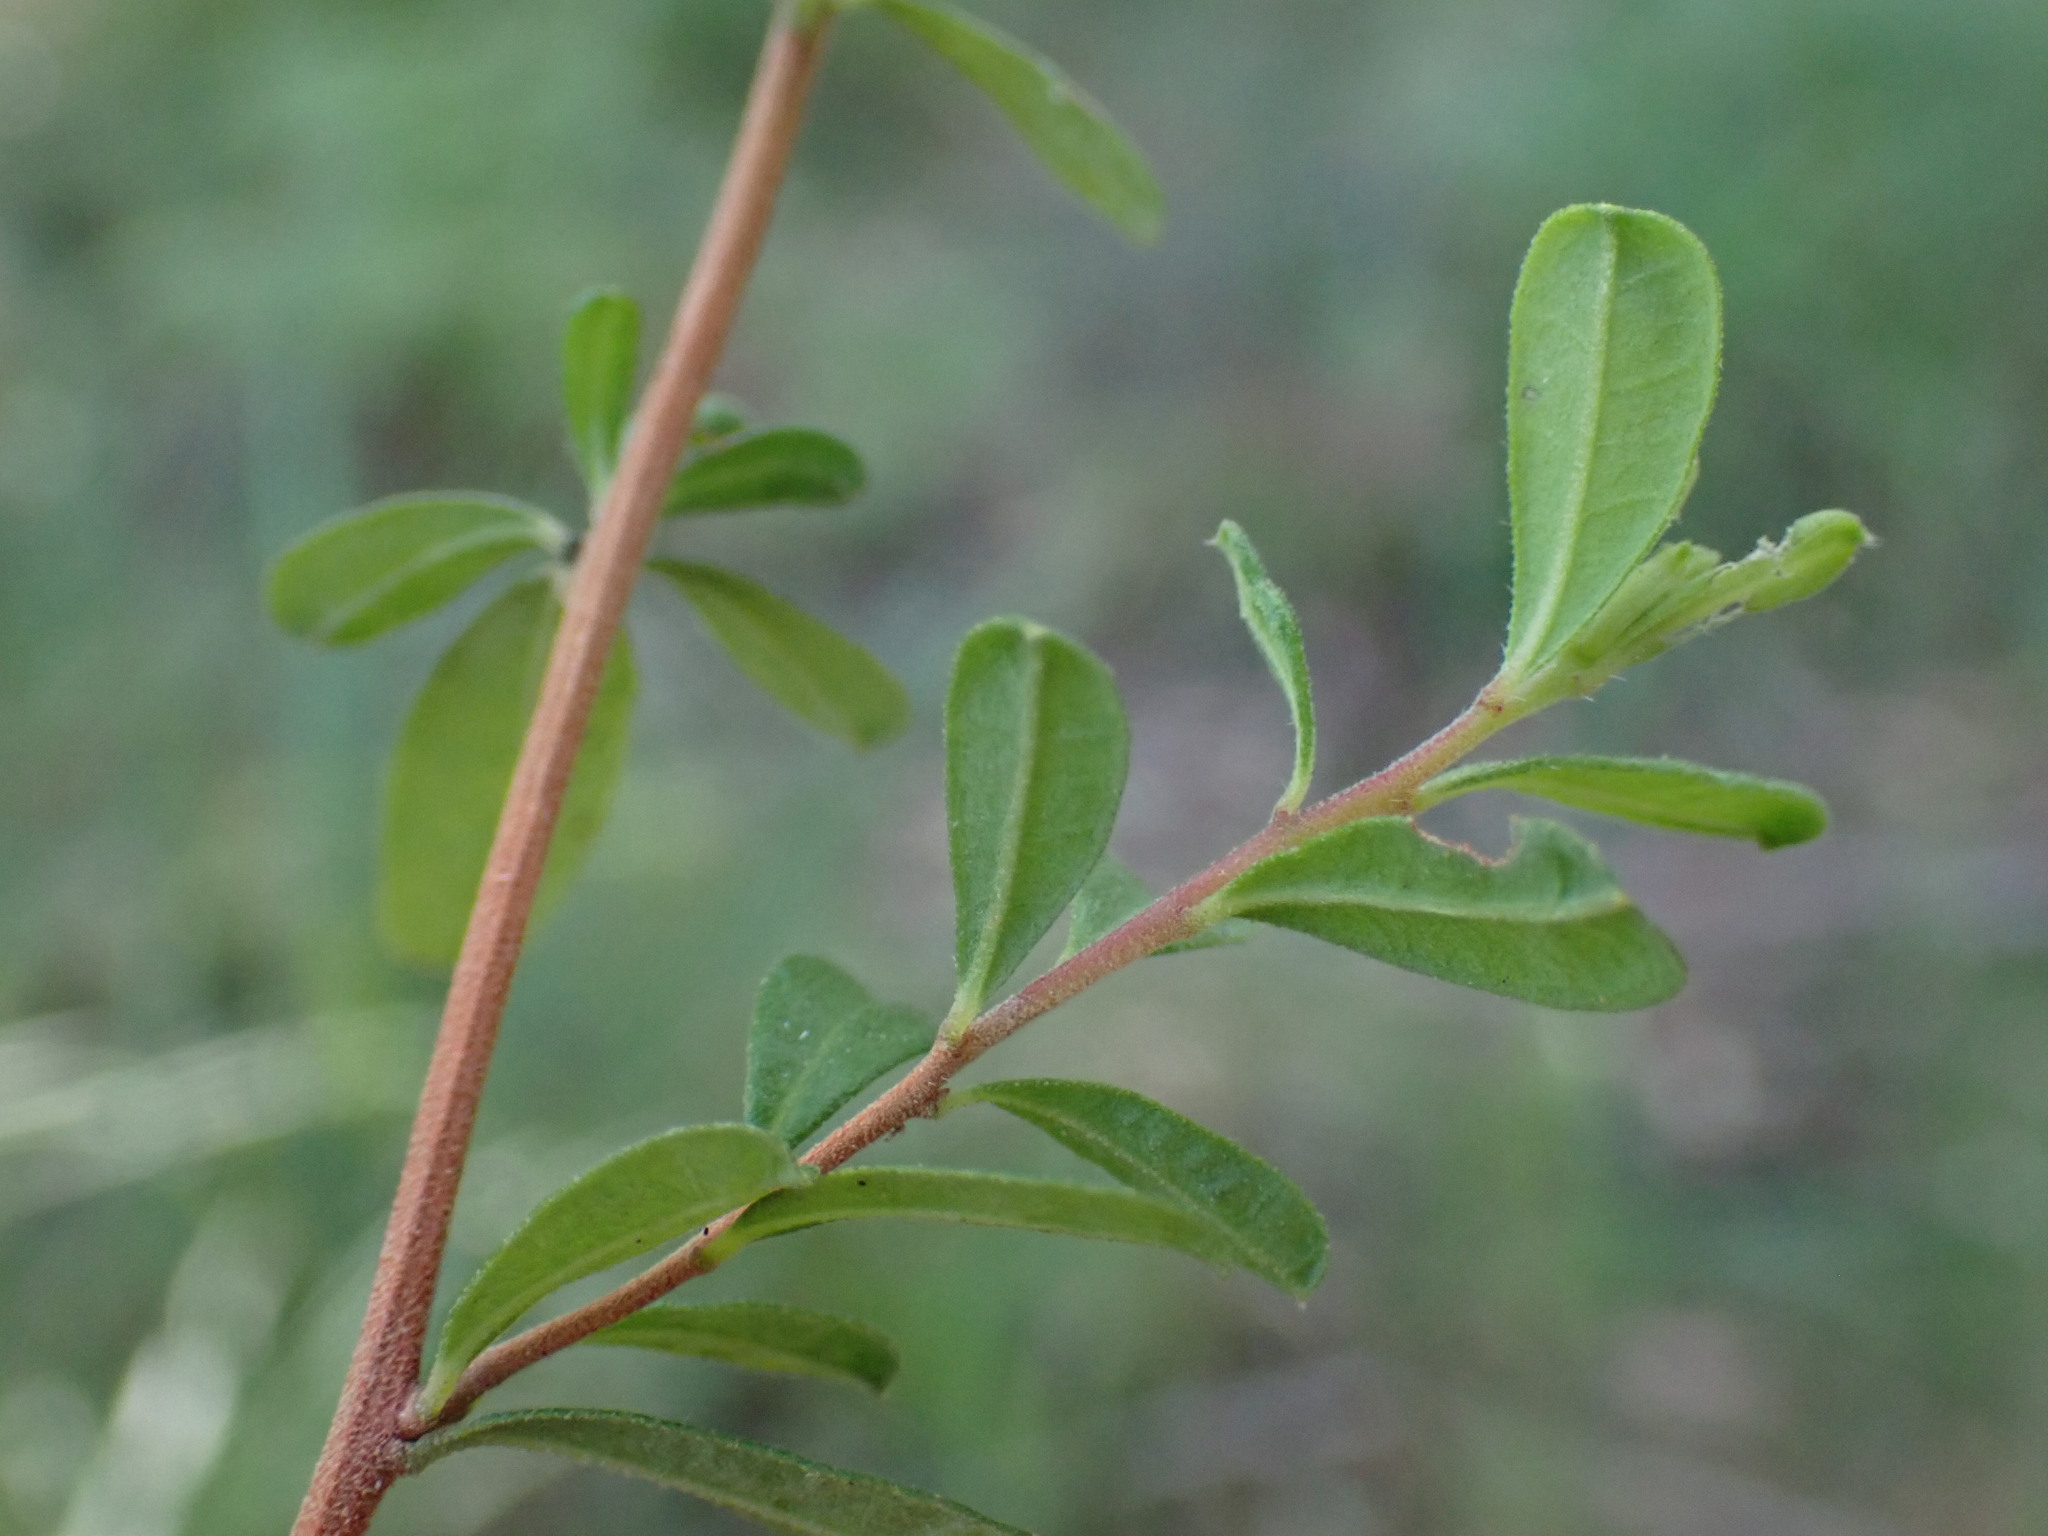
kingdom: Plantae
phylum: Tracheophyta
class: Magnoliopsida
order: Dilleniales
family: Dilleniaceae
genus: Hibbertia
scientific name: Hibbertia aspera
